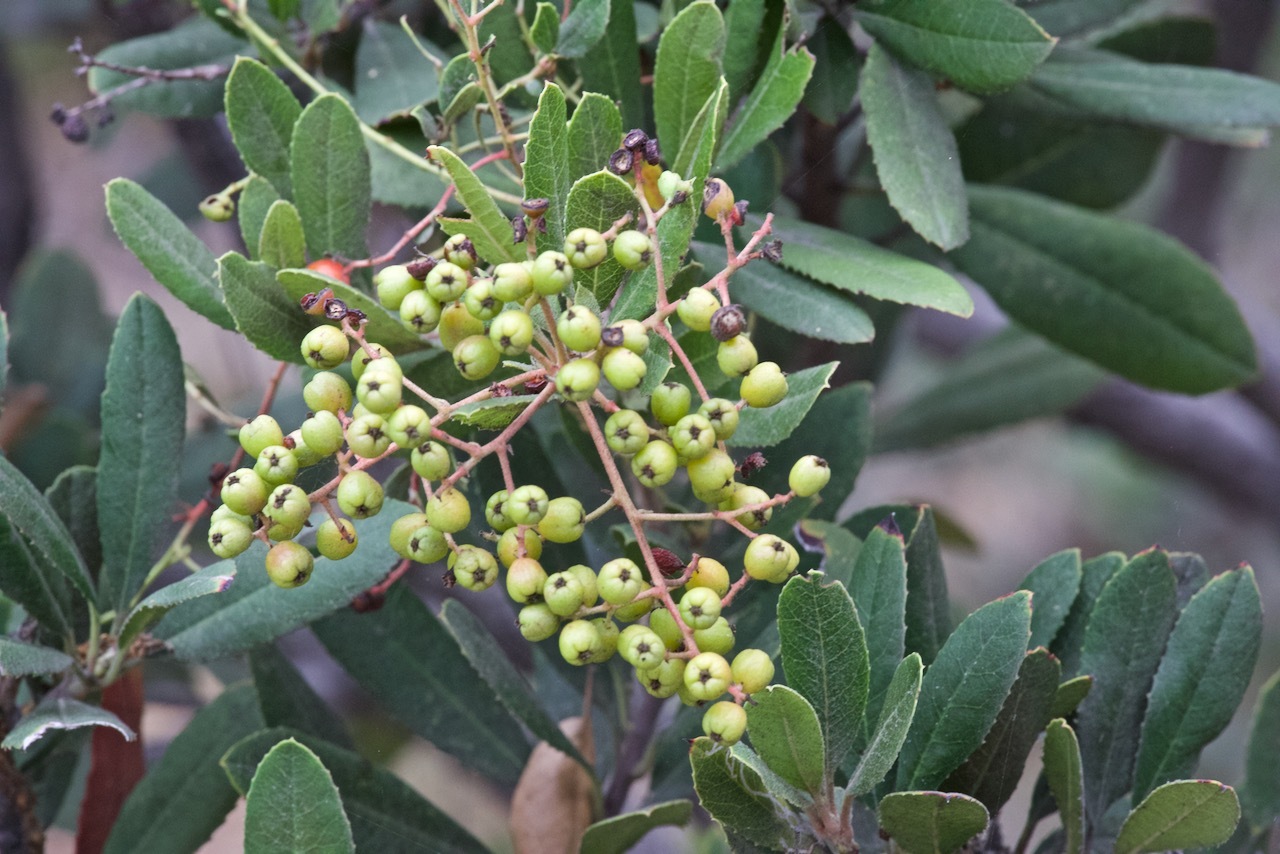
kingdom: Plantae
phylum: Tracheophyta
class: Magnoliopsida
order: Rosales
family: Rosaceae
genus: Heteromeles
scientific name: Heteromeles arbutifolia
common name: California-holly
